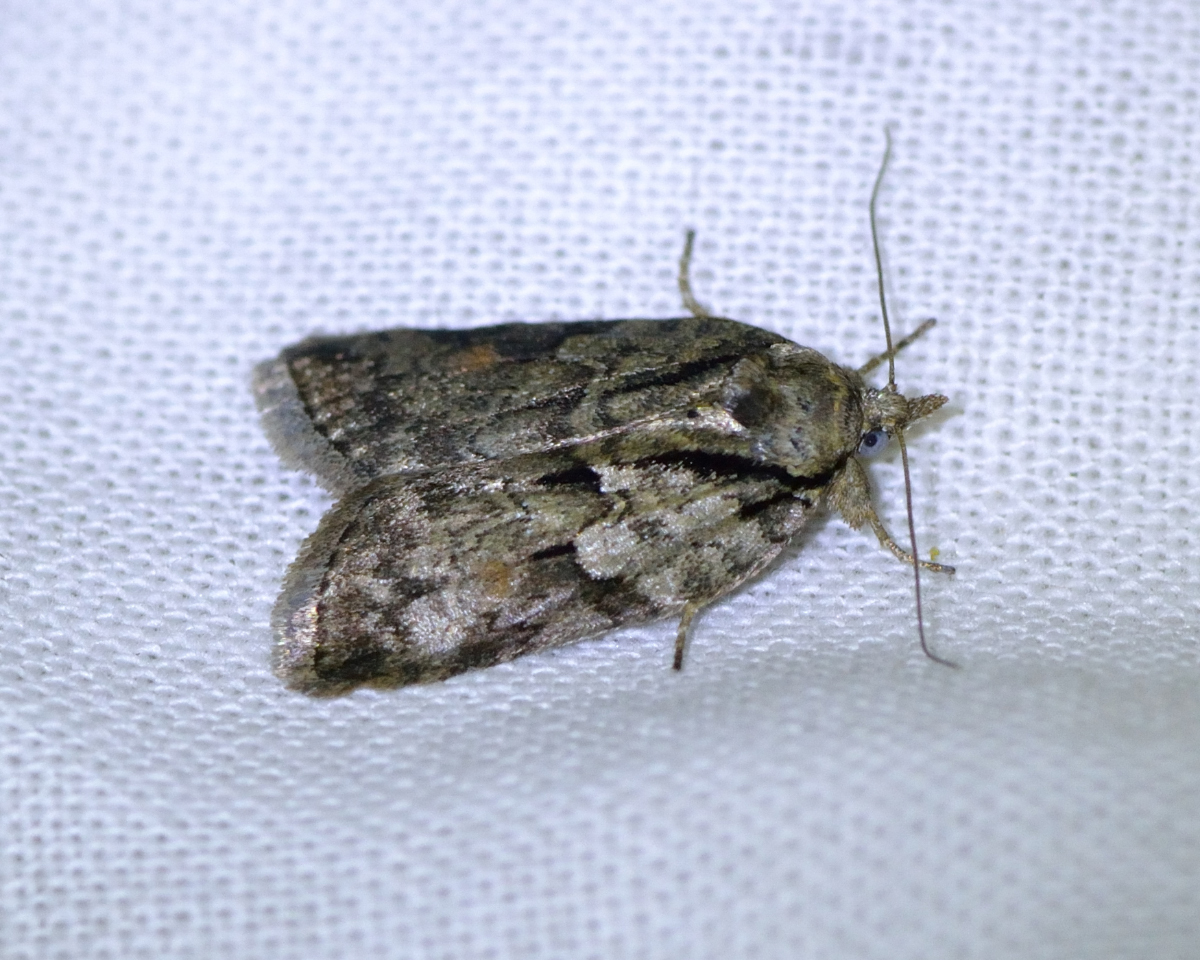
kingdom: Animalia
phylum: Arthropoda
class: Insecta
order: Lepidoptera
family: Nolidae
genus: Nycteola
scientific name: Nycteola degenerana
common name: Swallow nycteoline
